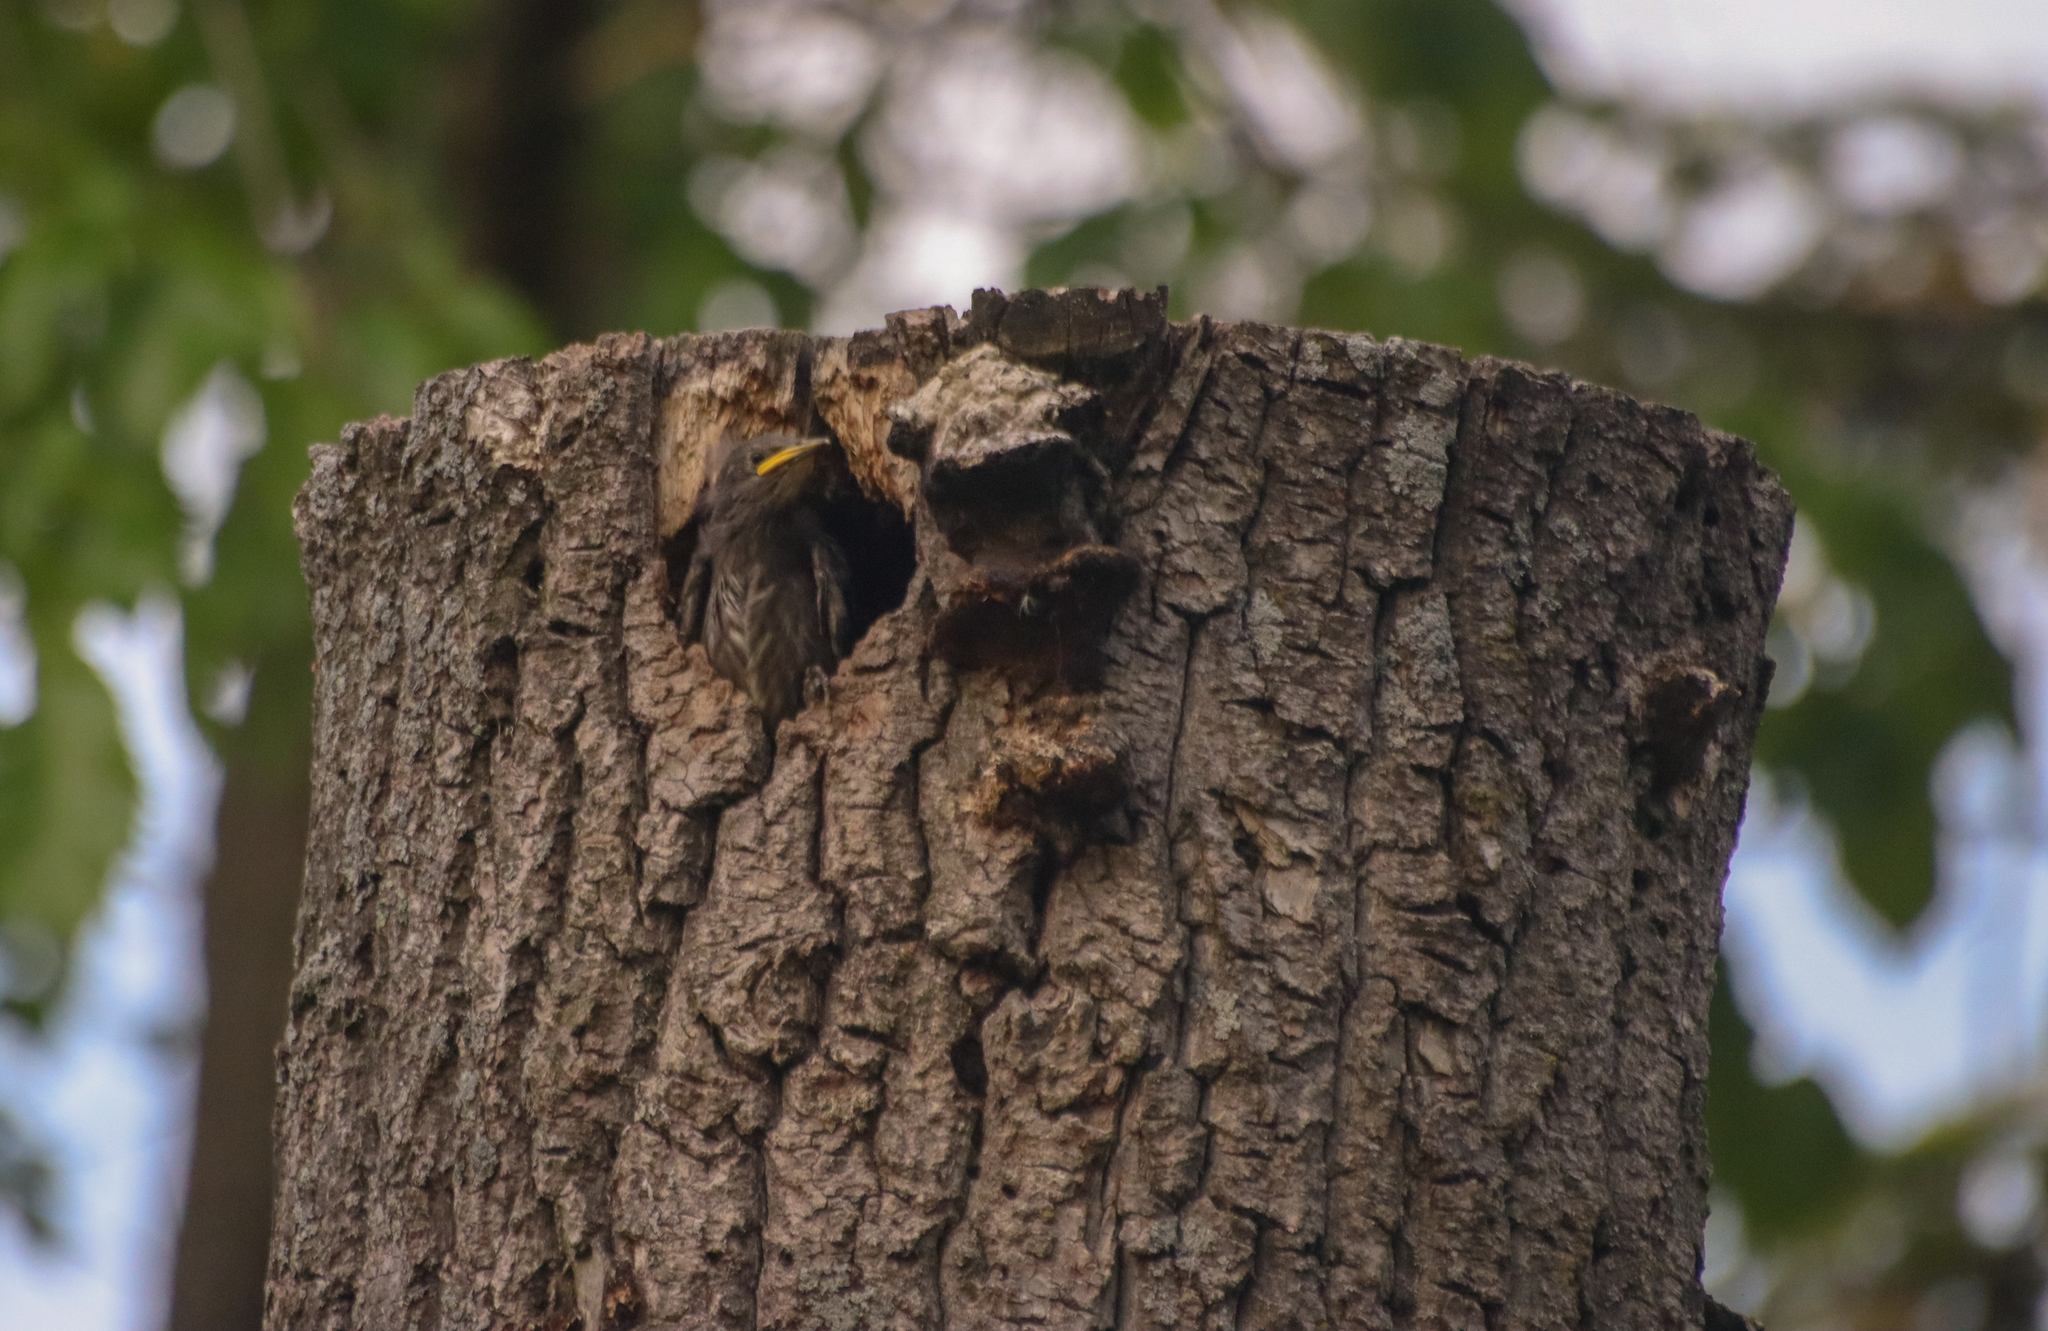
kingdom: Animalia
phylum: Chordata
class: Aves
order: Passeriformes
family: Sturnidae
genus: Sturnus
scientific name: Sturnus vulgaris
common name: Common starling
